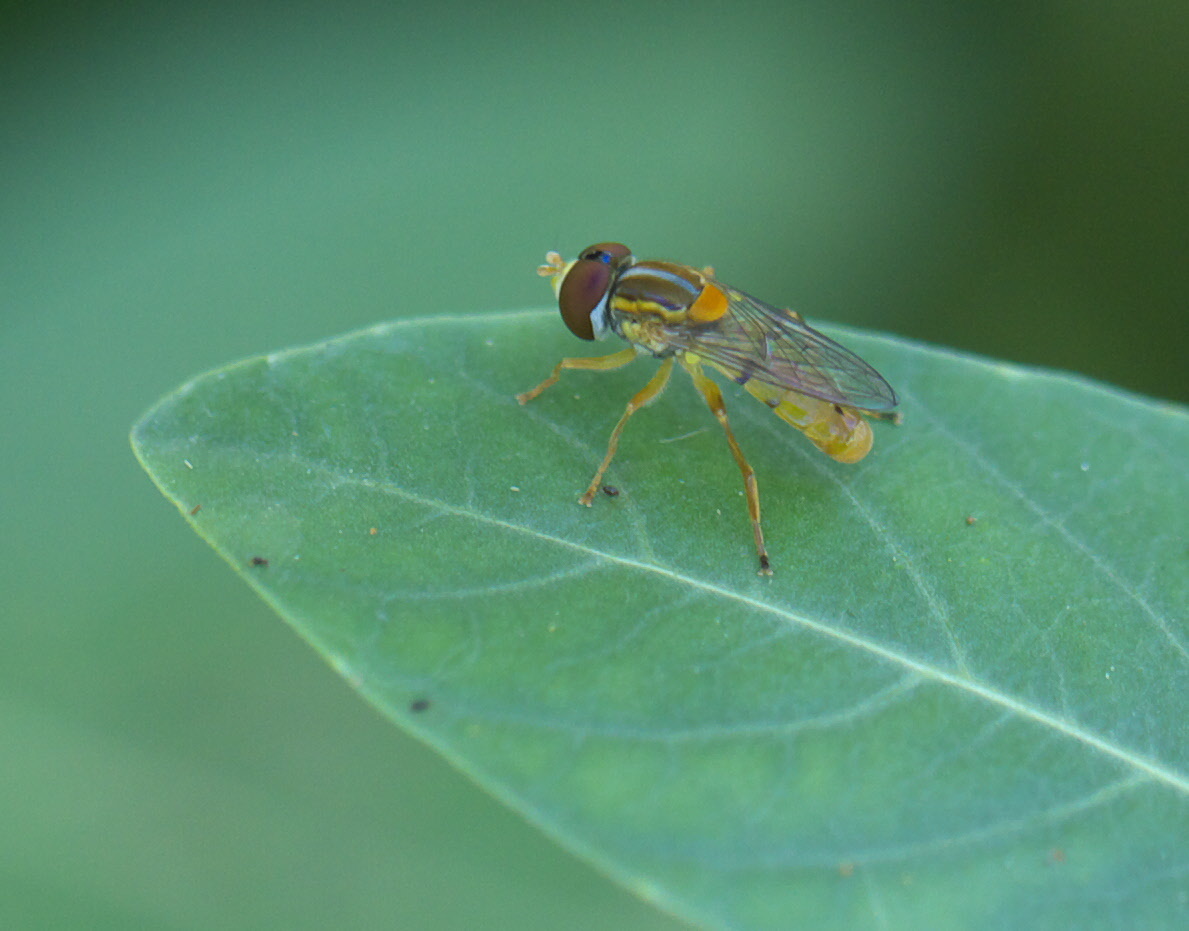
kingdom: Animalia
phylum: Arthropoda
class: Insecta
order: Diptera
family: Syrphidae
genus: Toxomerus
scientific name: Toxomerus jussiaeae
